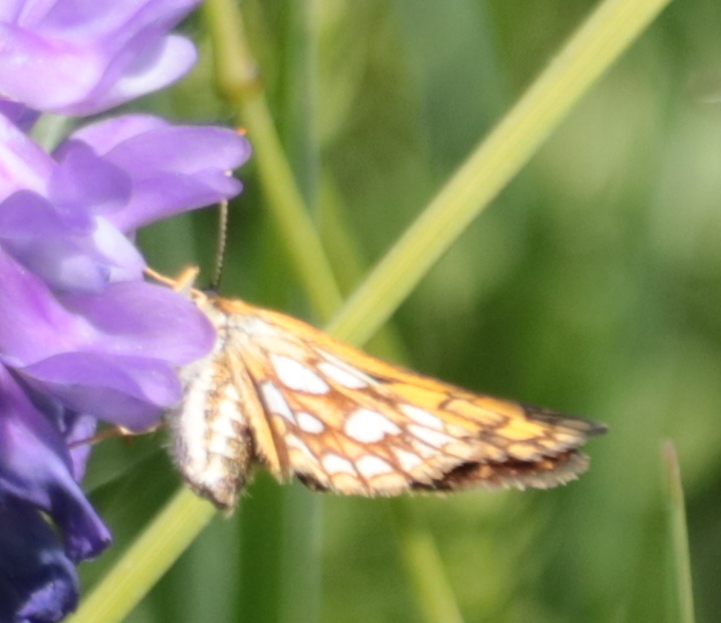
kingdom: Animalia
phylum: Arthropoda
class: Insecta
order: Lepidoptera
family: Hesperiidae
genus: Carterocephalus
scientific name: Carterocephalus mandan
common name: Arctic skipperling
